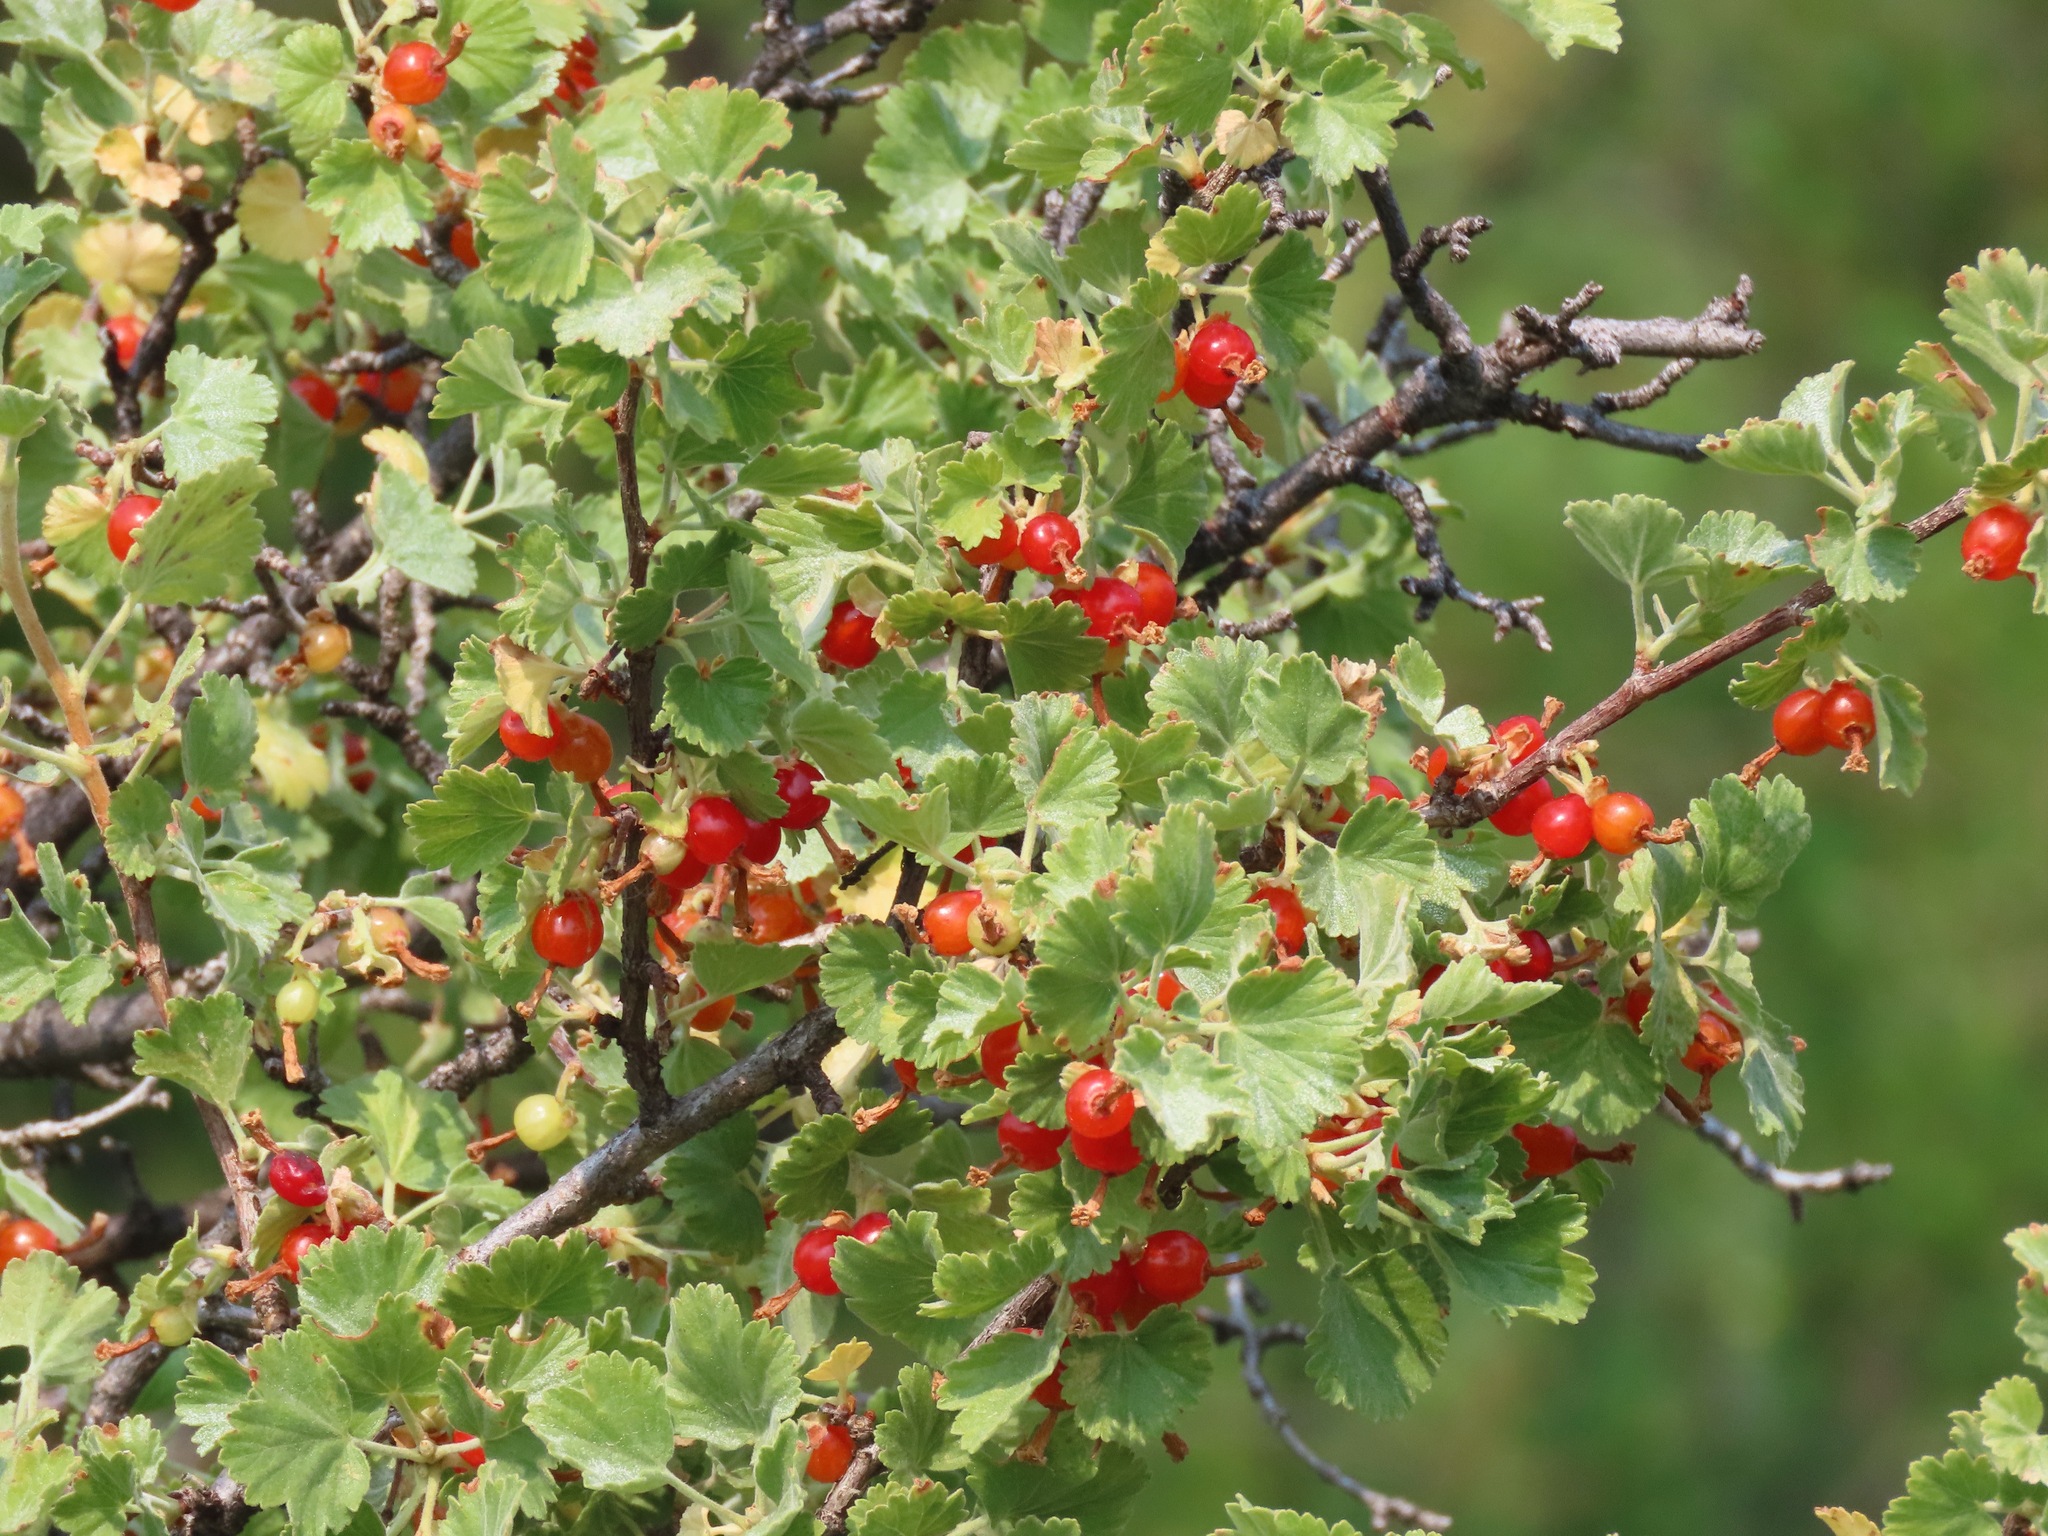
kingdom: Plantae
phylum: Tracheophyta
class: Magnoliopsida
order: Saxifragales
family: Grossulariaceae
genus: Ribes
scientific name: Ribes cereum
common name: Wax currant
